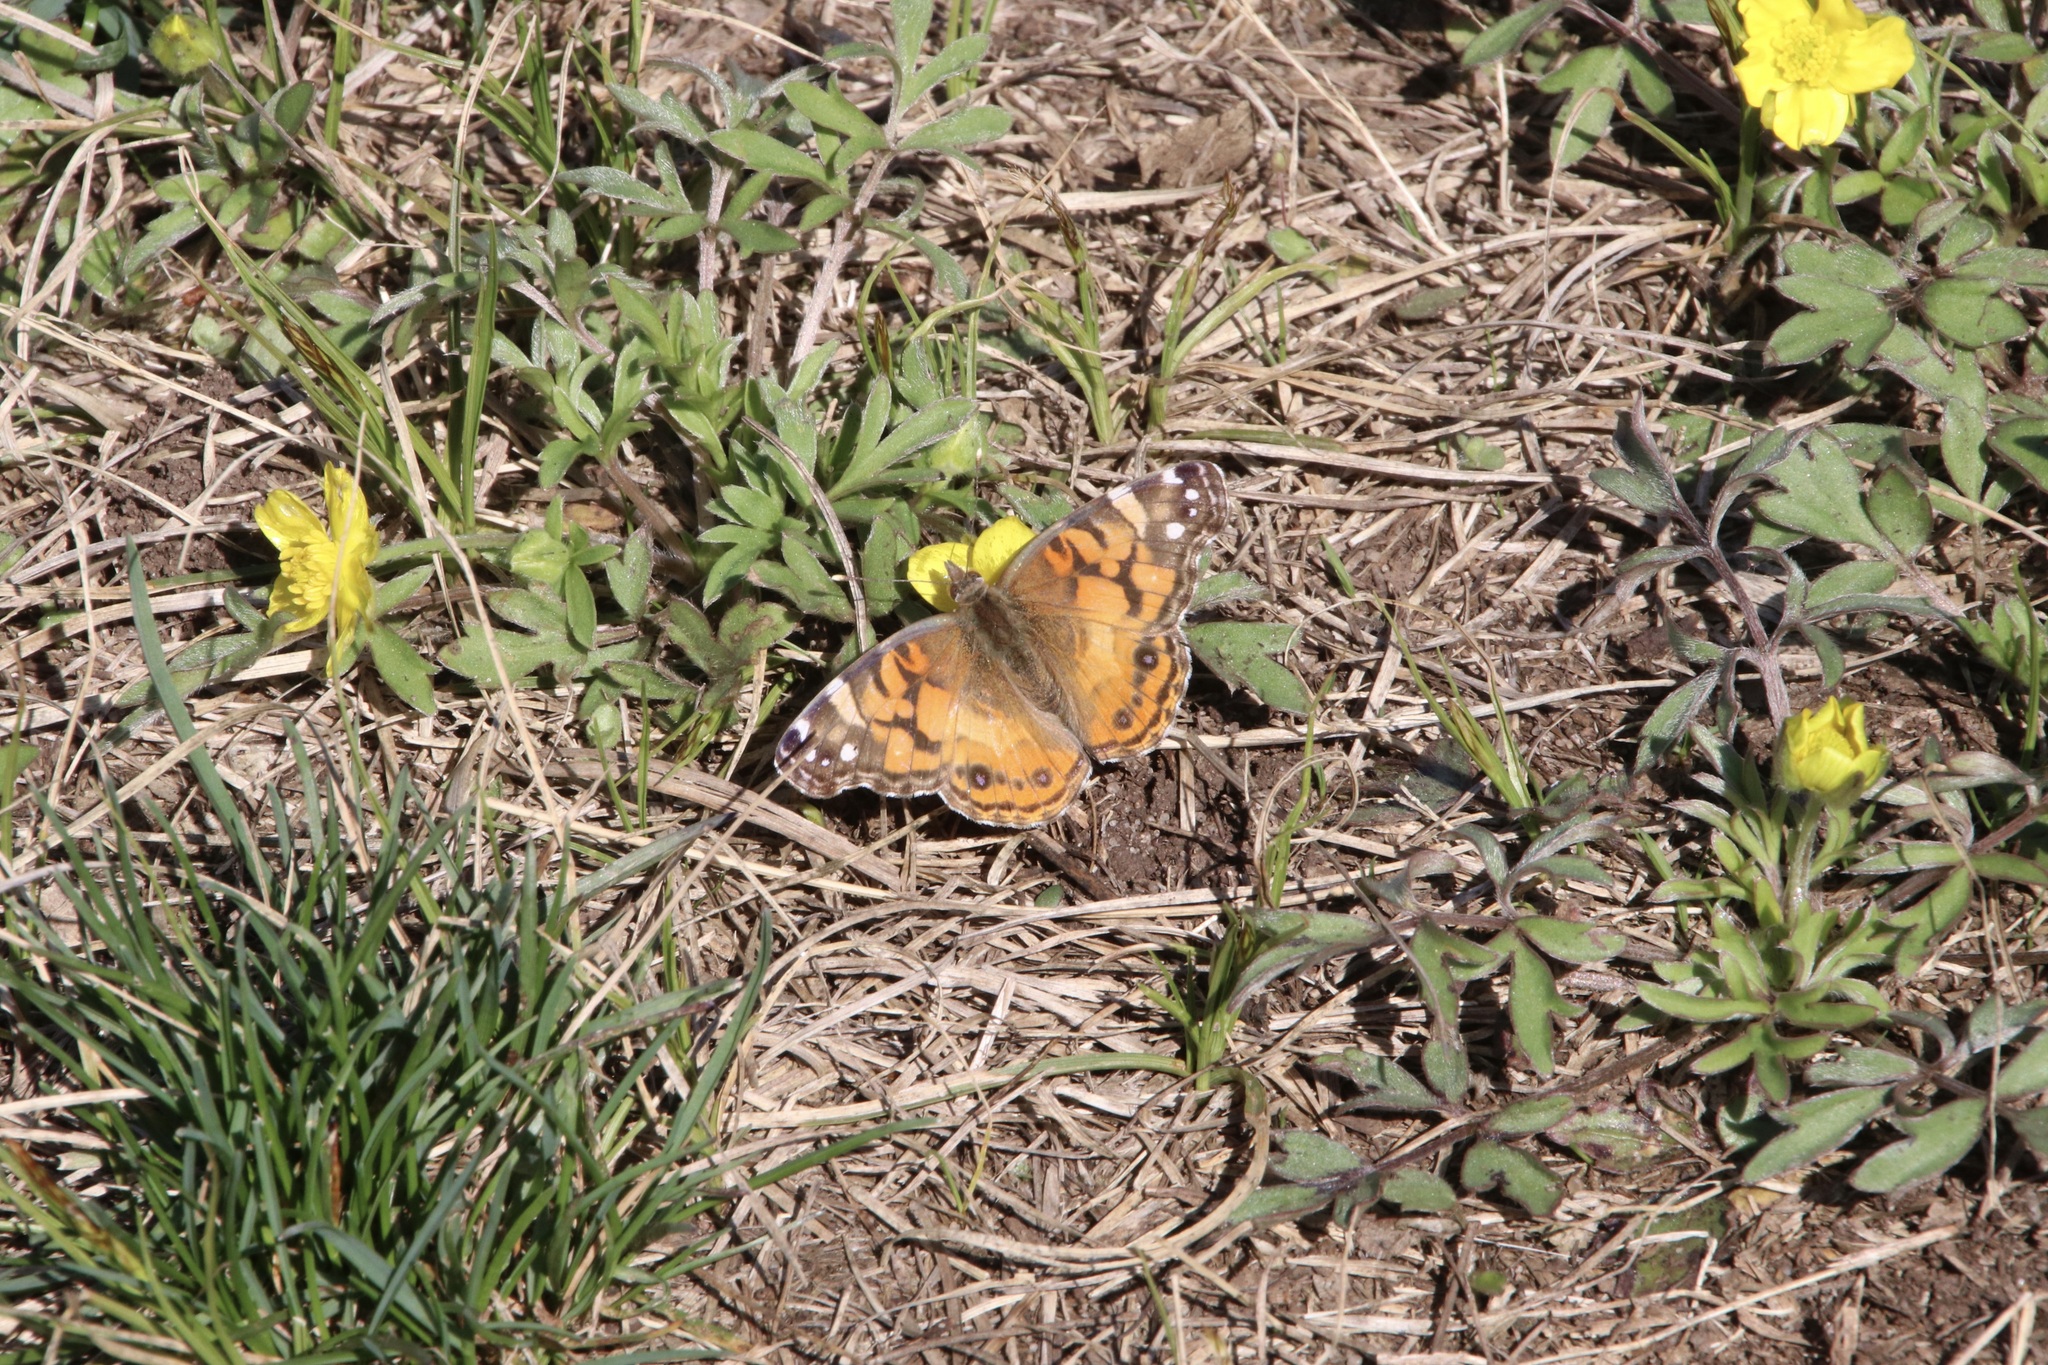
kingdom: Animalia
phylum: Arthropoda
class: Insecta
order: Lepidoptera
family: Nymphalidae
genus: Vanessa
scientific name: Vanessa virginiensis
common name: American lady
